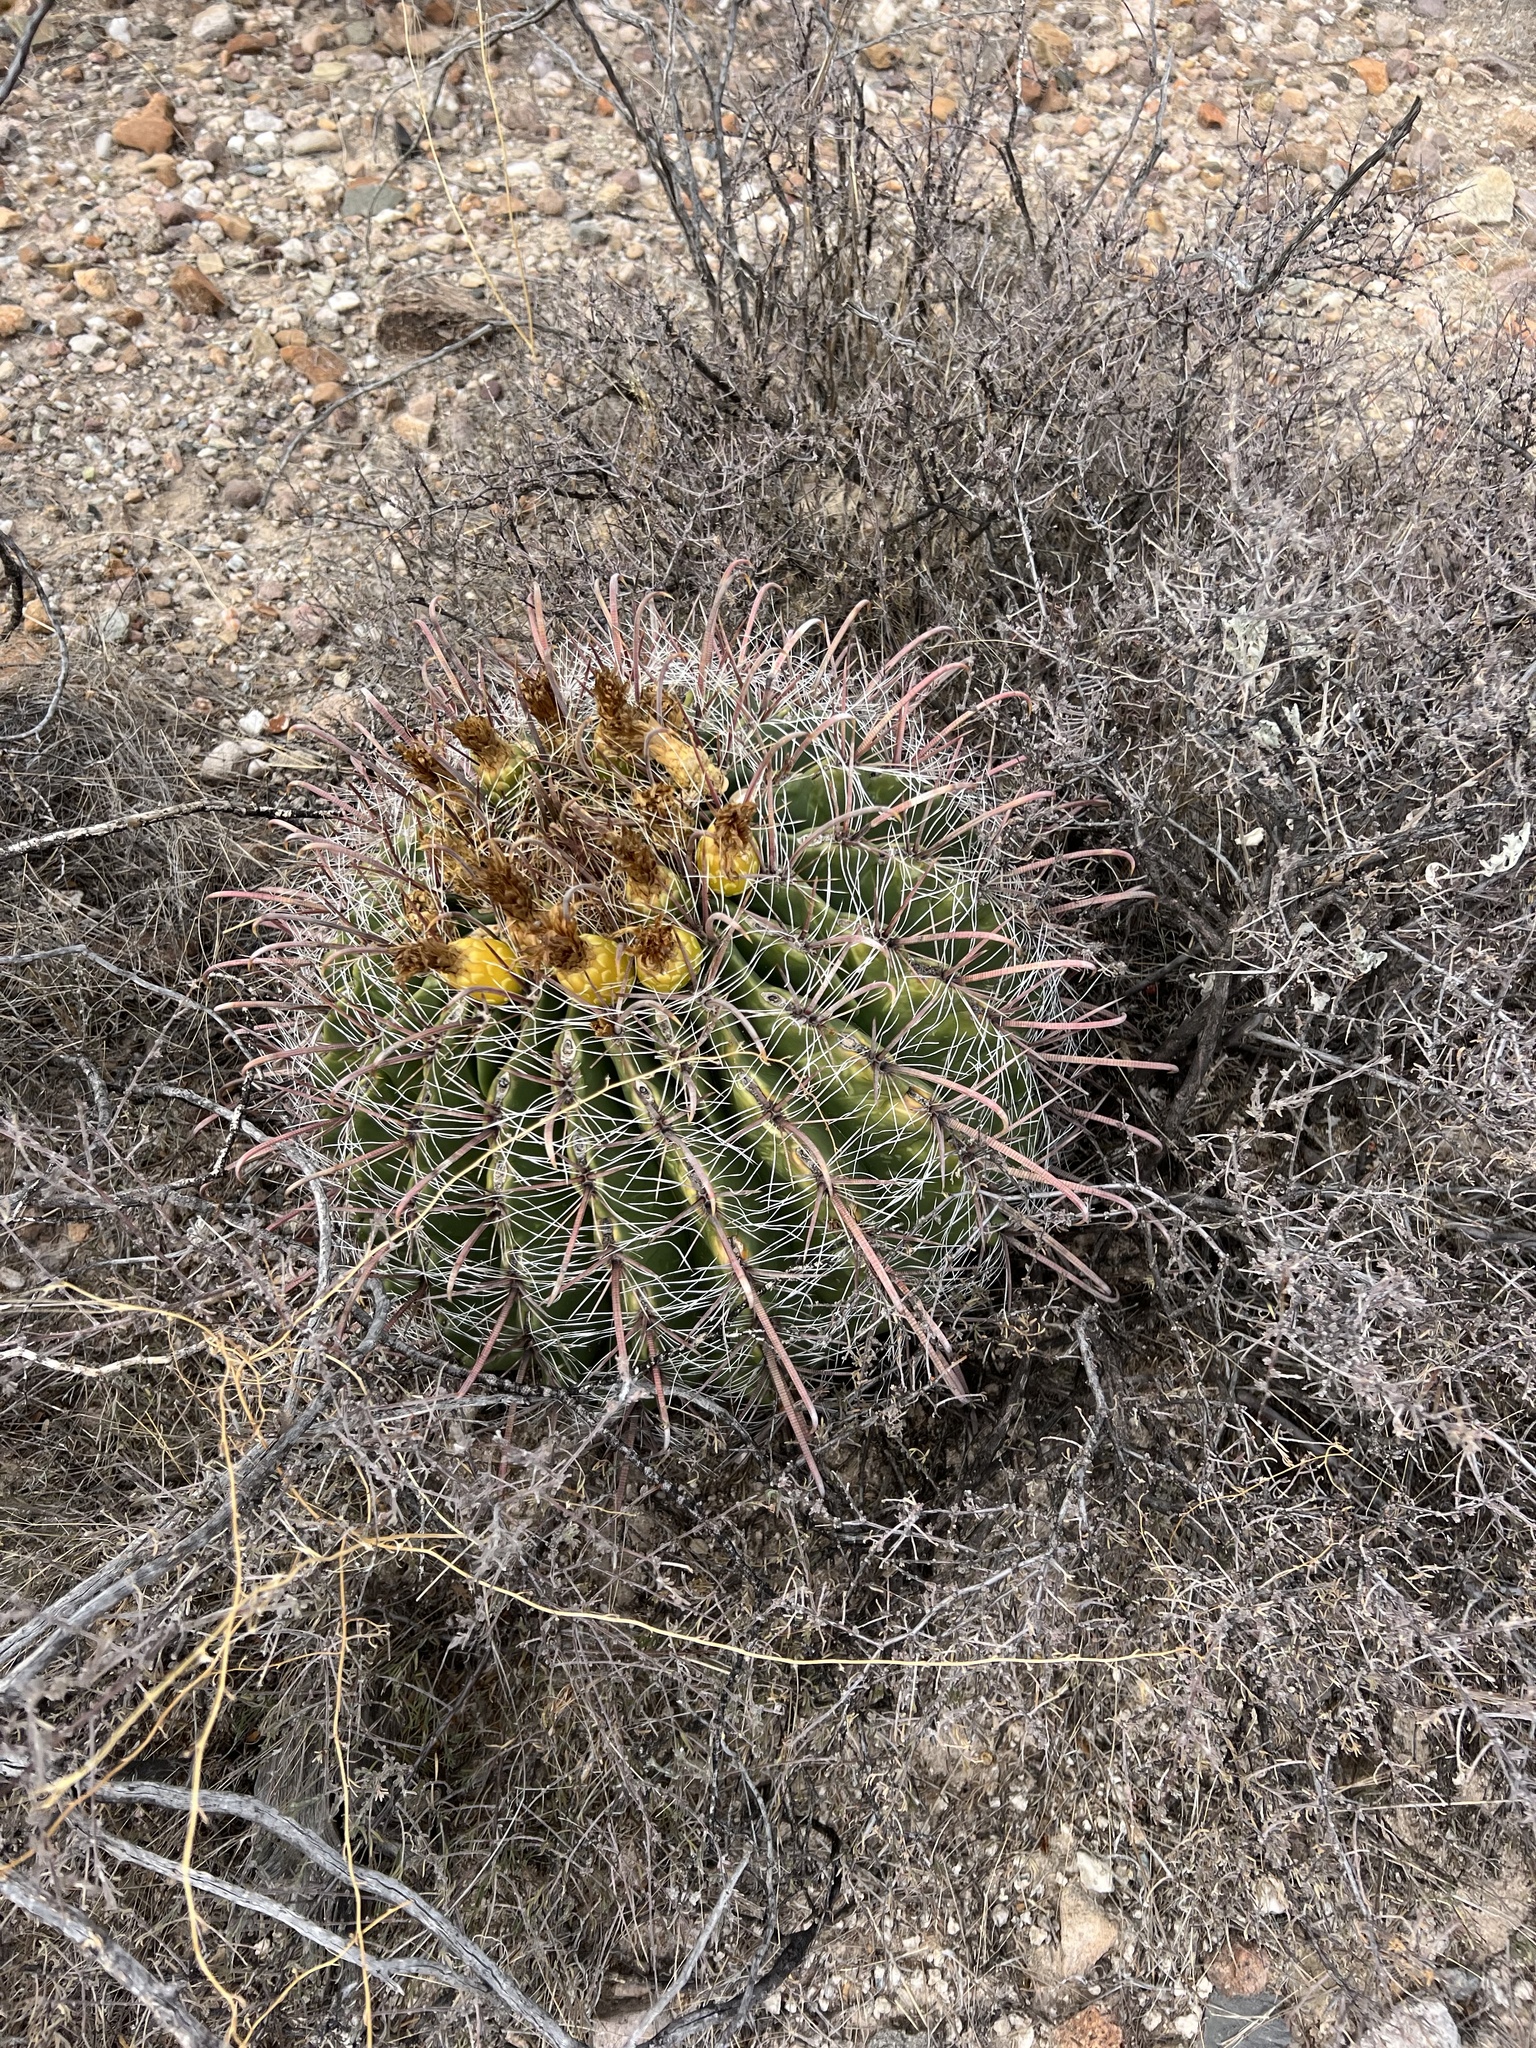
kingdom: Plantae
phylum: Tracheophyta
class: Magnoliopsida
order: Caryophyllales
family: Cactaceae
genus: Ferocactus
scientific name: Ferocactus wislizeni
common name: Candy barrel cactus
